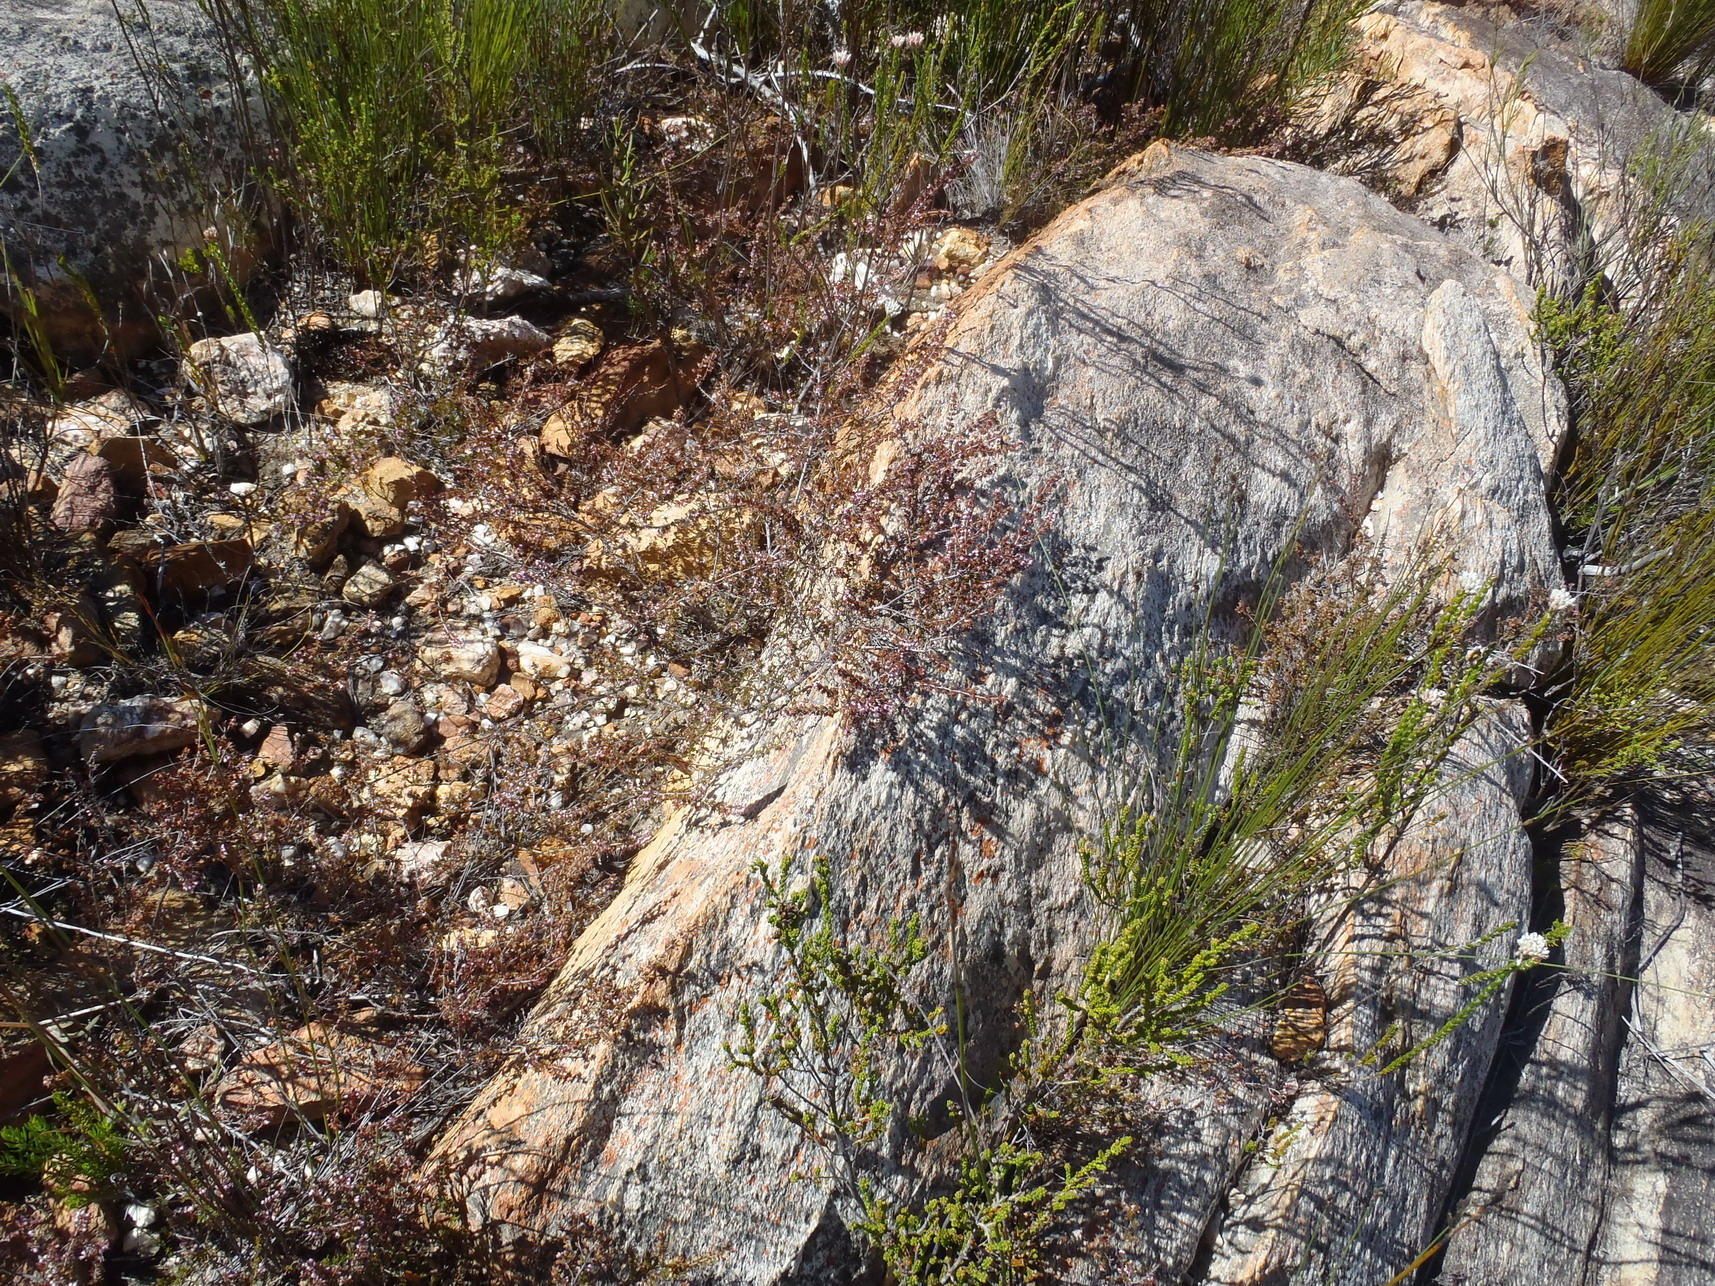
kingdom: Plantae
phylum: Tracheophyta
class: Magnoliopsida
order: Ericales
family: Ericaceae
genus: Erica
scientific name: Erica anguliger
